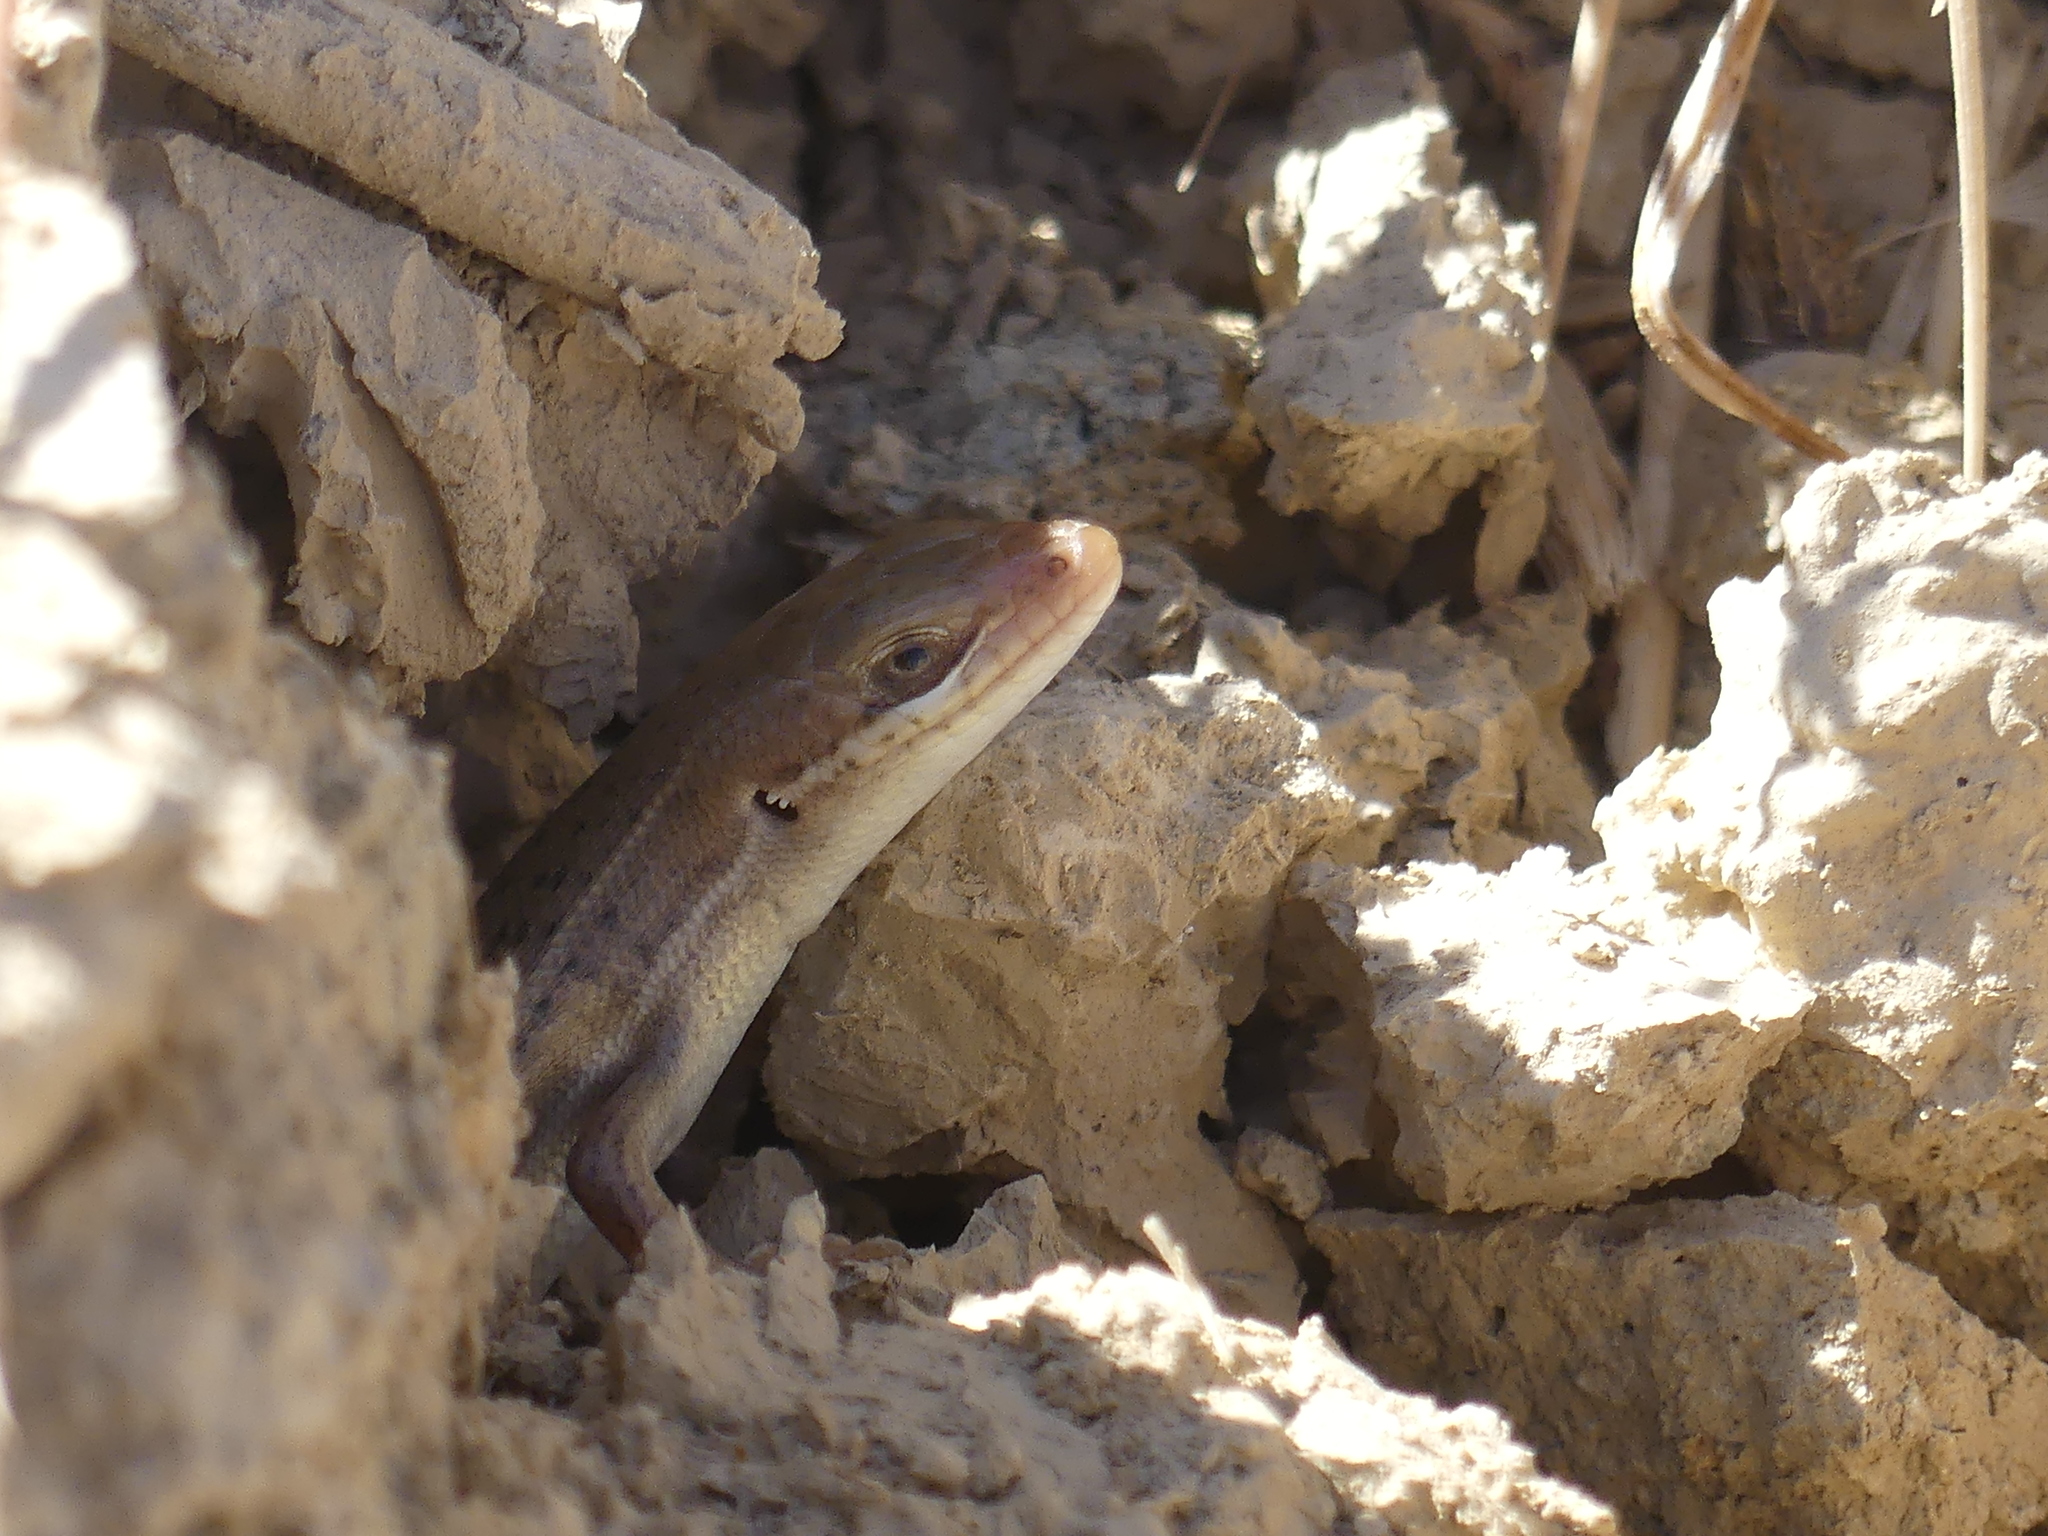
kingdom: Animalia
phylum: Chordata
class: Squamata
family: Scincidae
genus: Heremites
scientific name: Heremites vittatus
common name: Bridled mabuya
